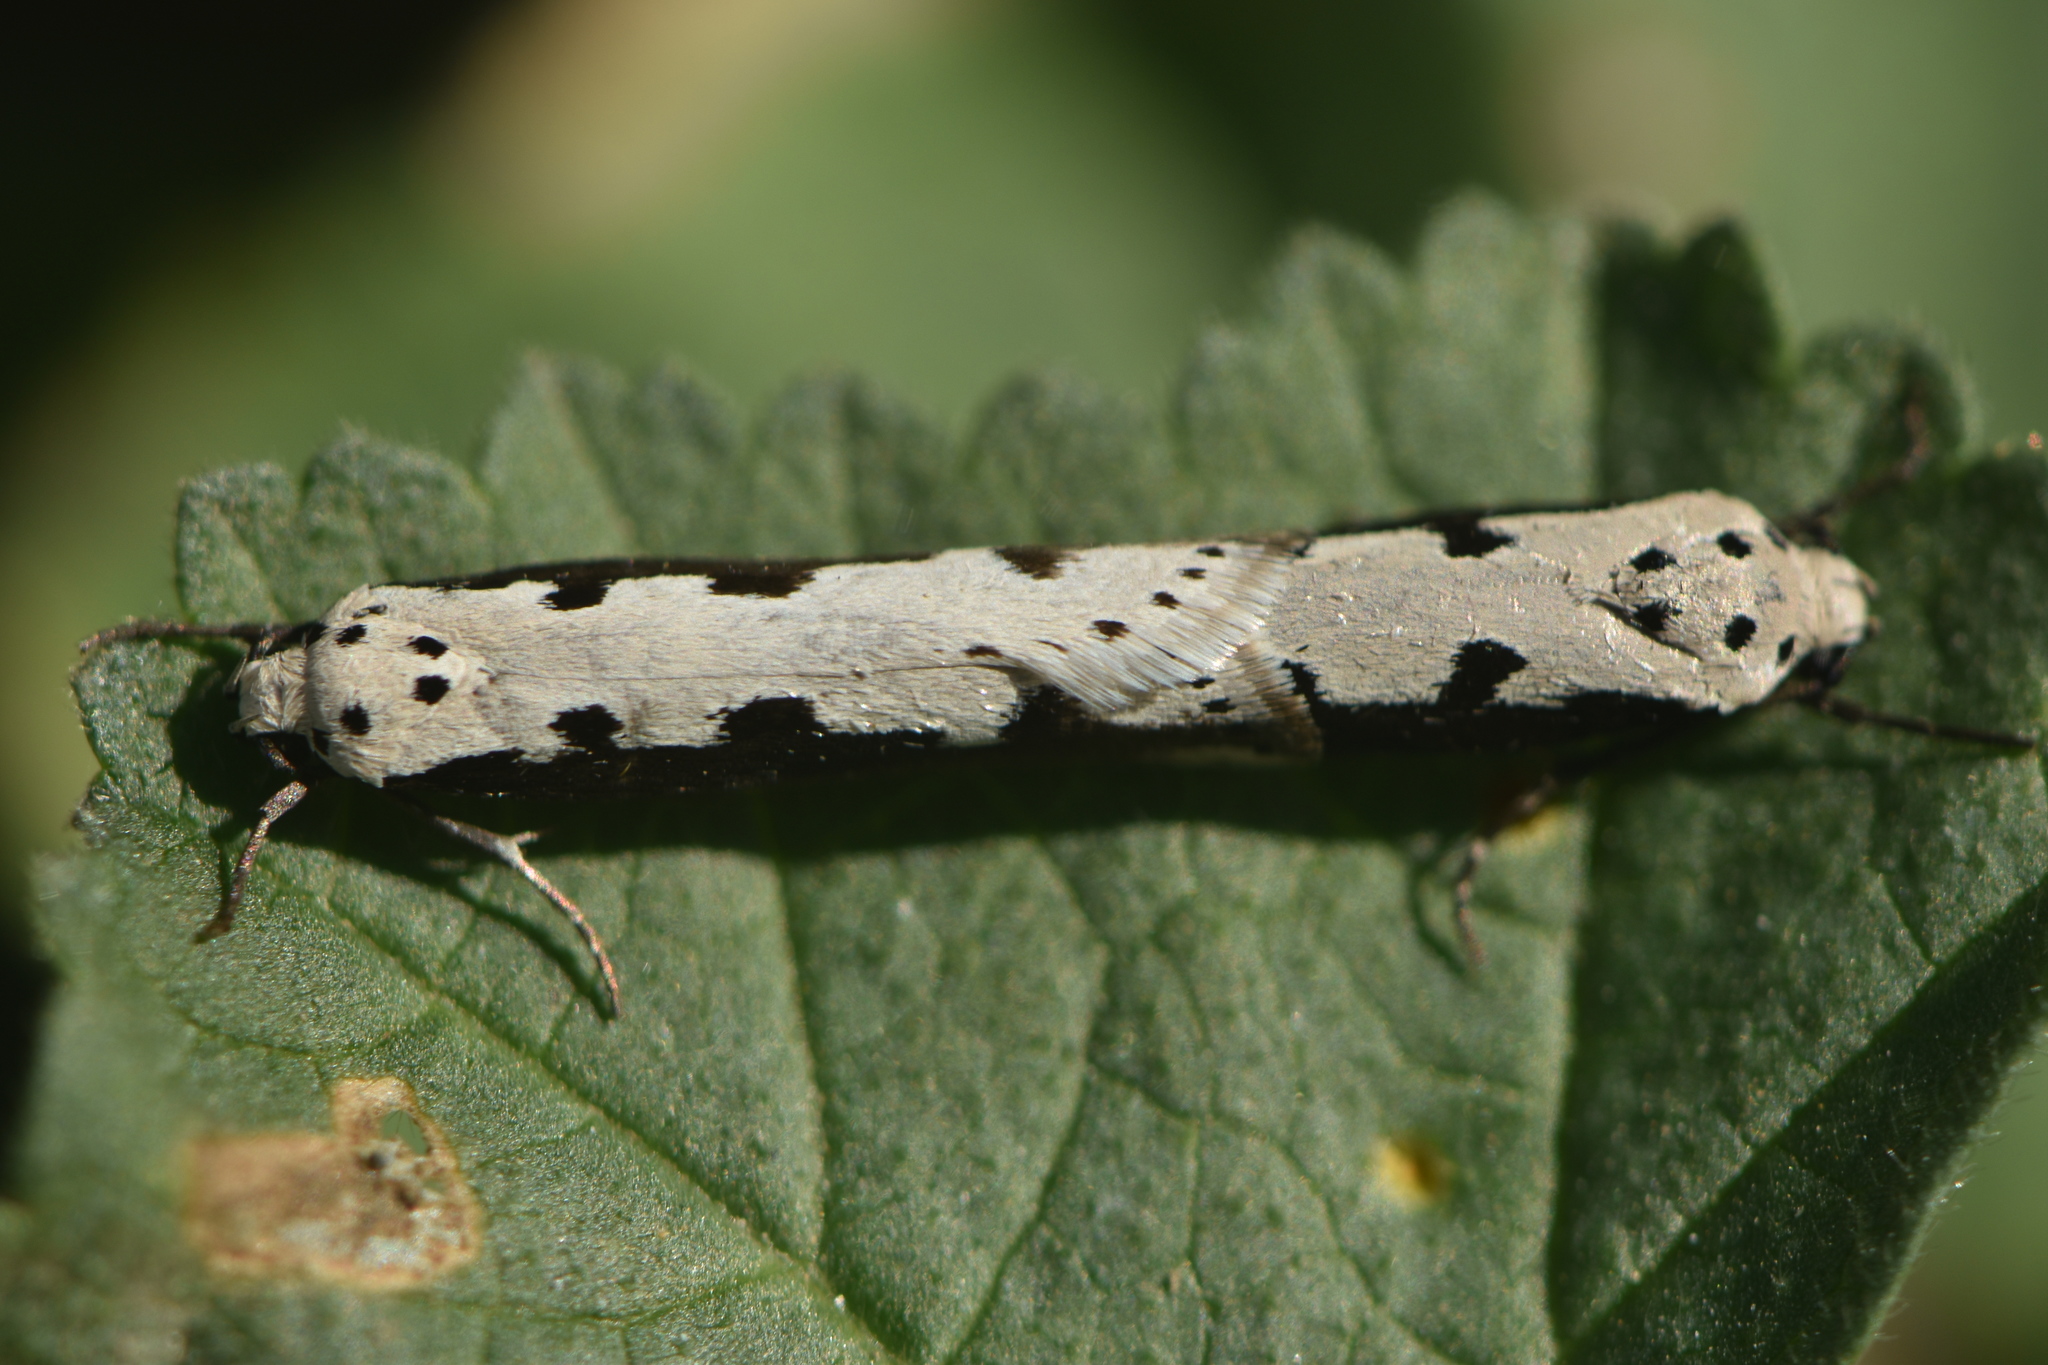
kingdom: Animalia
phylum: Arthropoda
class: Insecta
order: Lepidoptera
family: Ethmiidae
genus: Ethmia
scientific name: Ethmia bipunctella
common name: Bordered ermel
